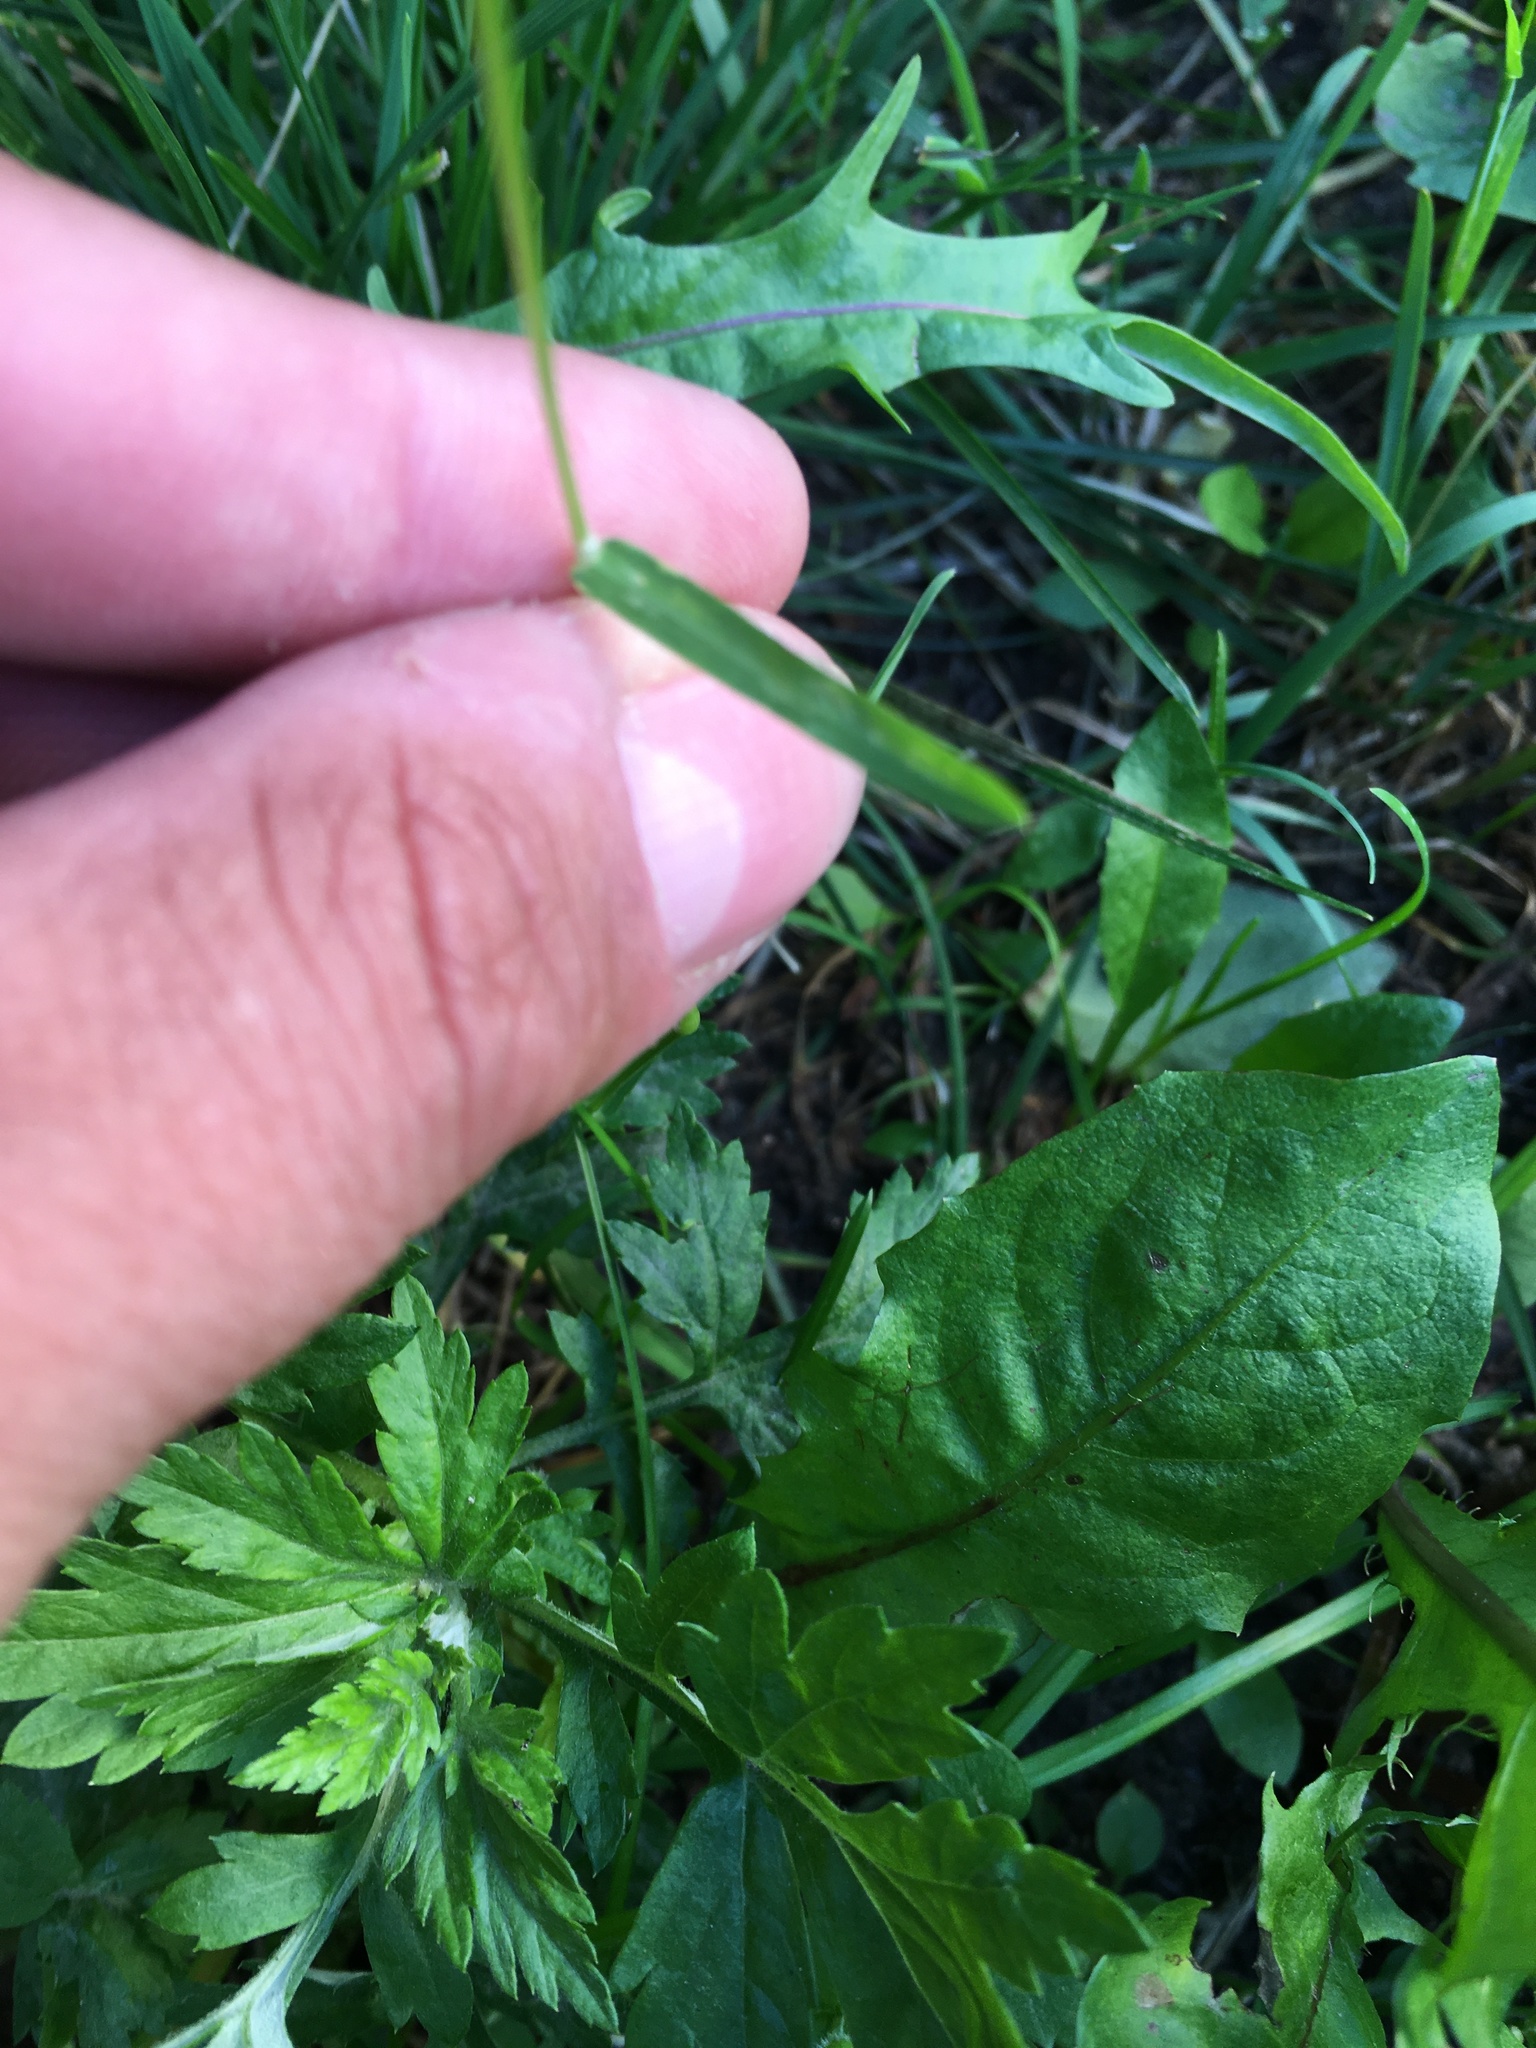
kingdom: Plantae
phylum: Tracheophyta
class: Liliopsida
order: Poales
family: Poaceae
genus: Poa
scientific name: Poa annua
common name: Annual bluegrass
